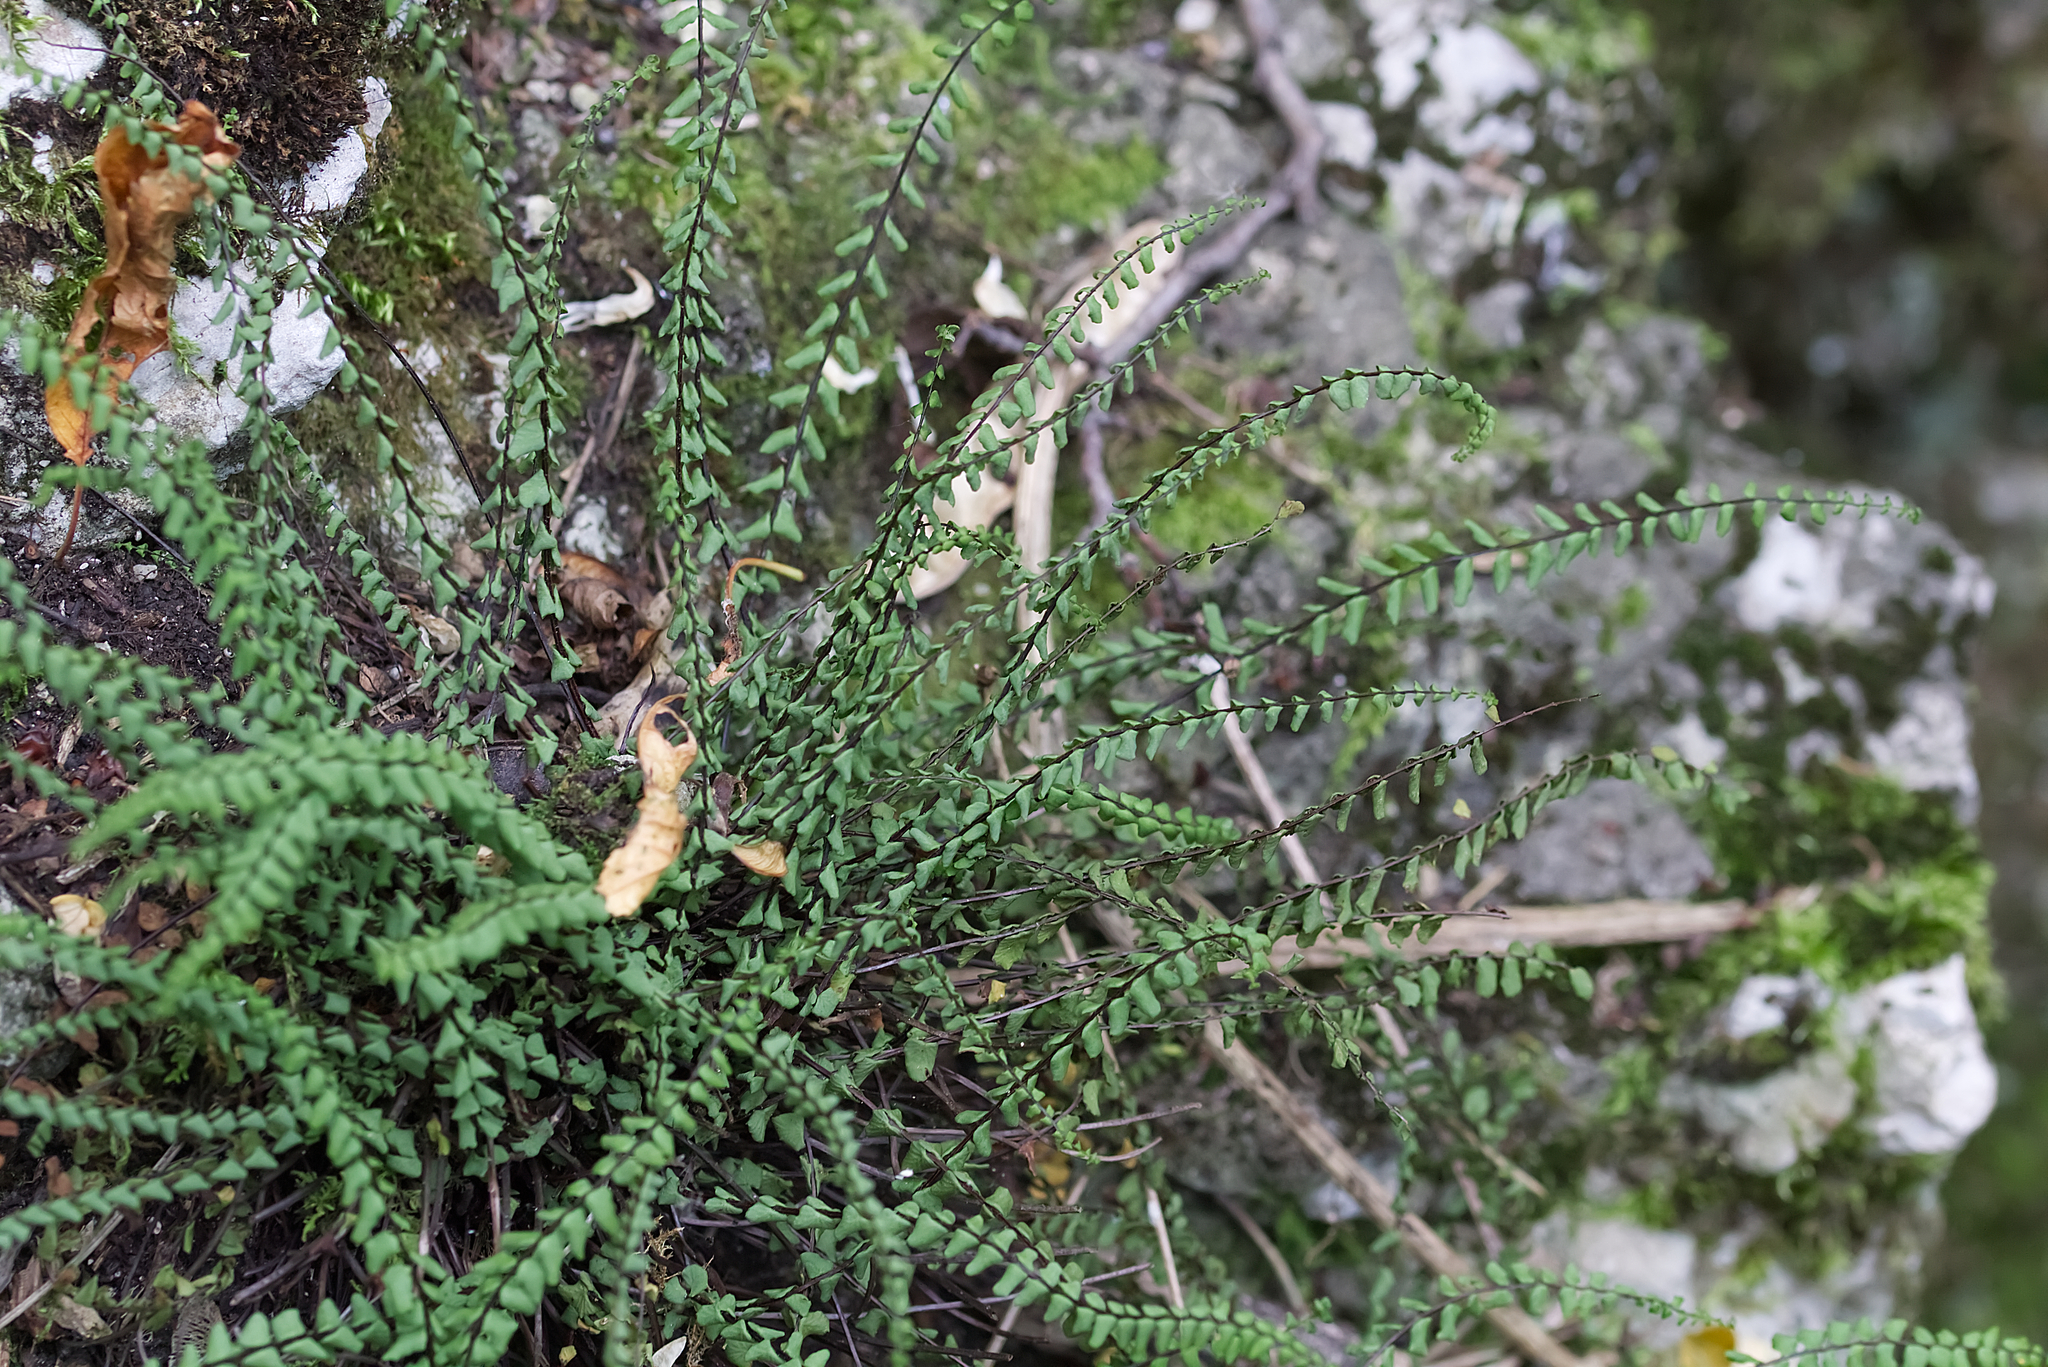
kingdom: Plantae
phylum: Tracheophyta
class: Polypodiopsida
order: Polypodiales
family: Aspleniaceae
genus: Asplenium
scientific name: Asplenium trichomanes
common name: Maidenhair spleenwort
